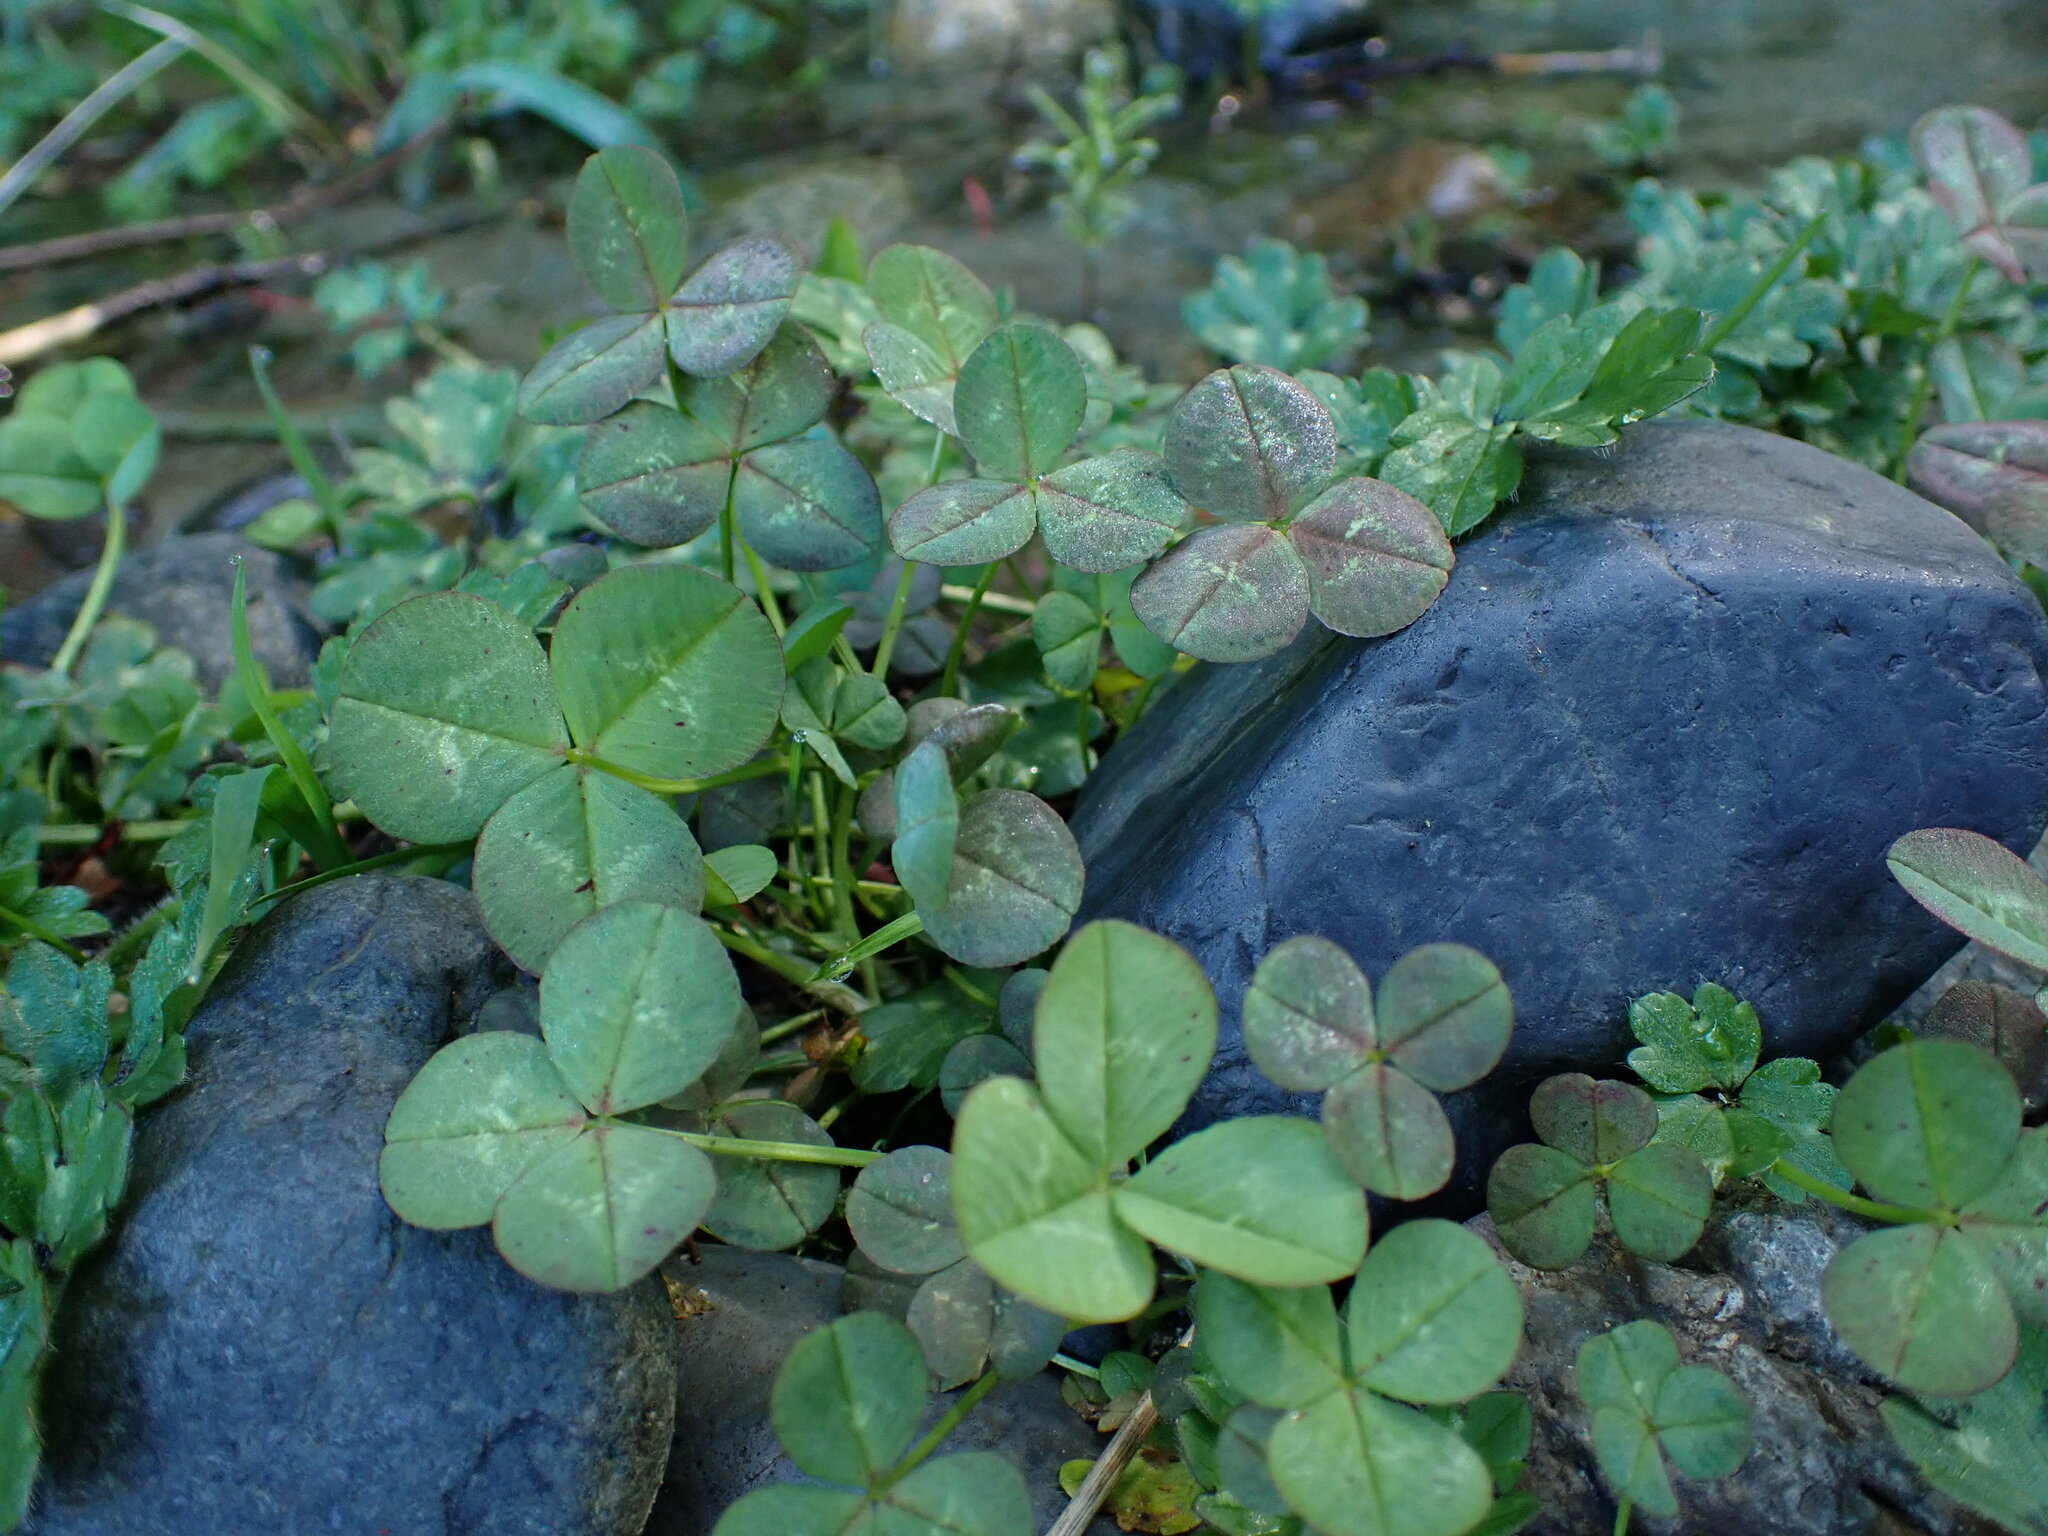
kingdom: Plantae
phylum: Tracheophyta
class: Magnoliopsida
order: Fabales
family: Fabaceae
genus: Trifolium
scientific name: Trifolium repens
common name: White clover
